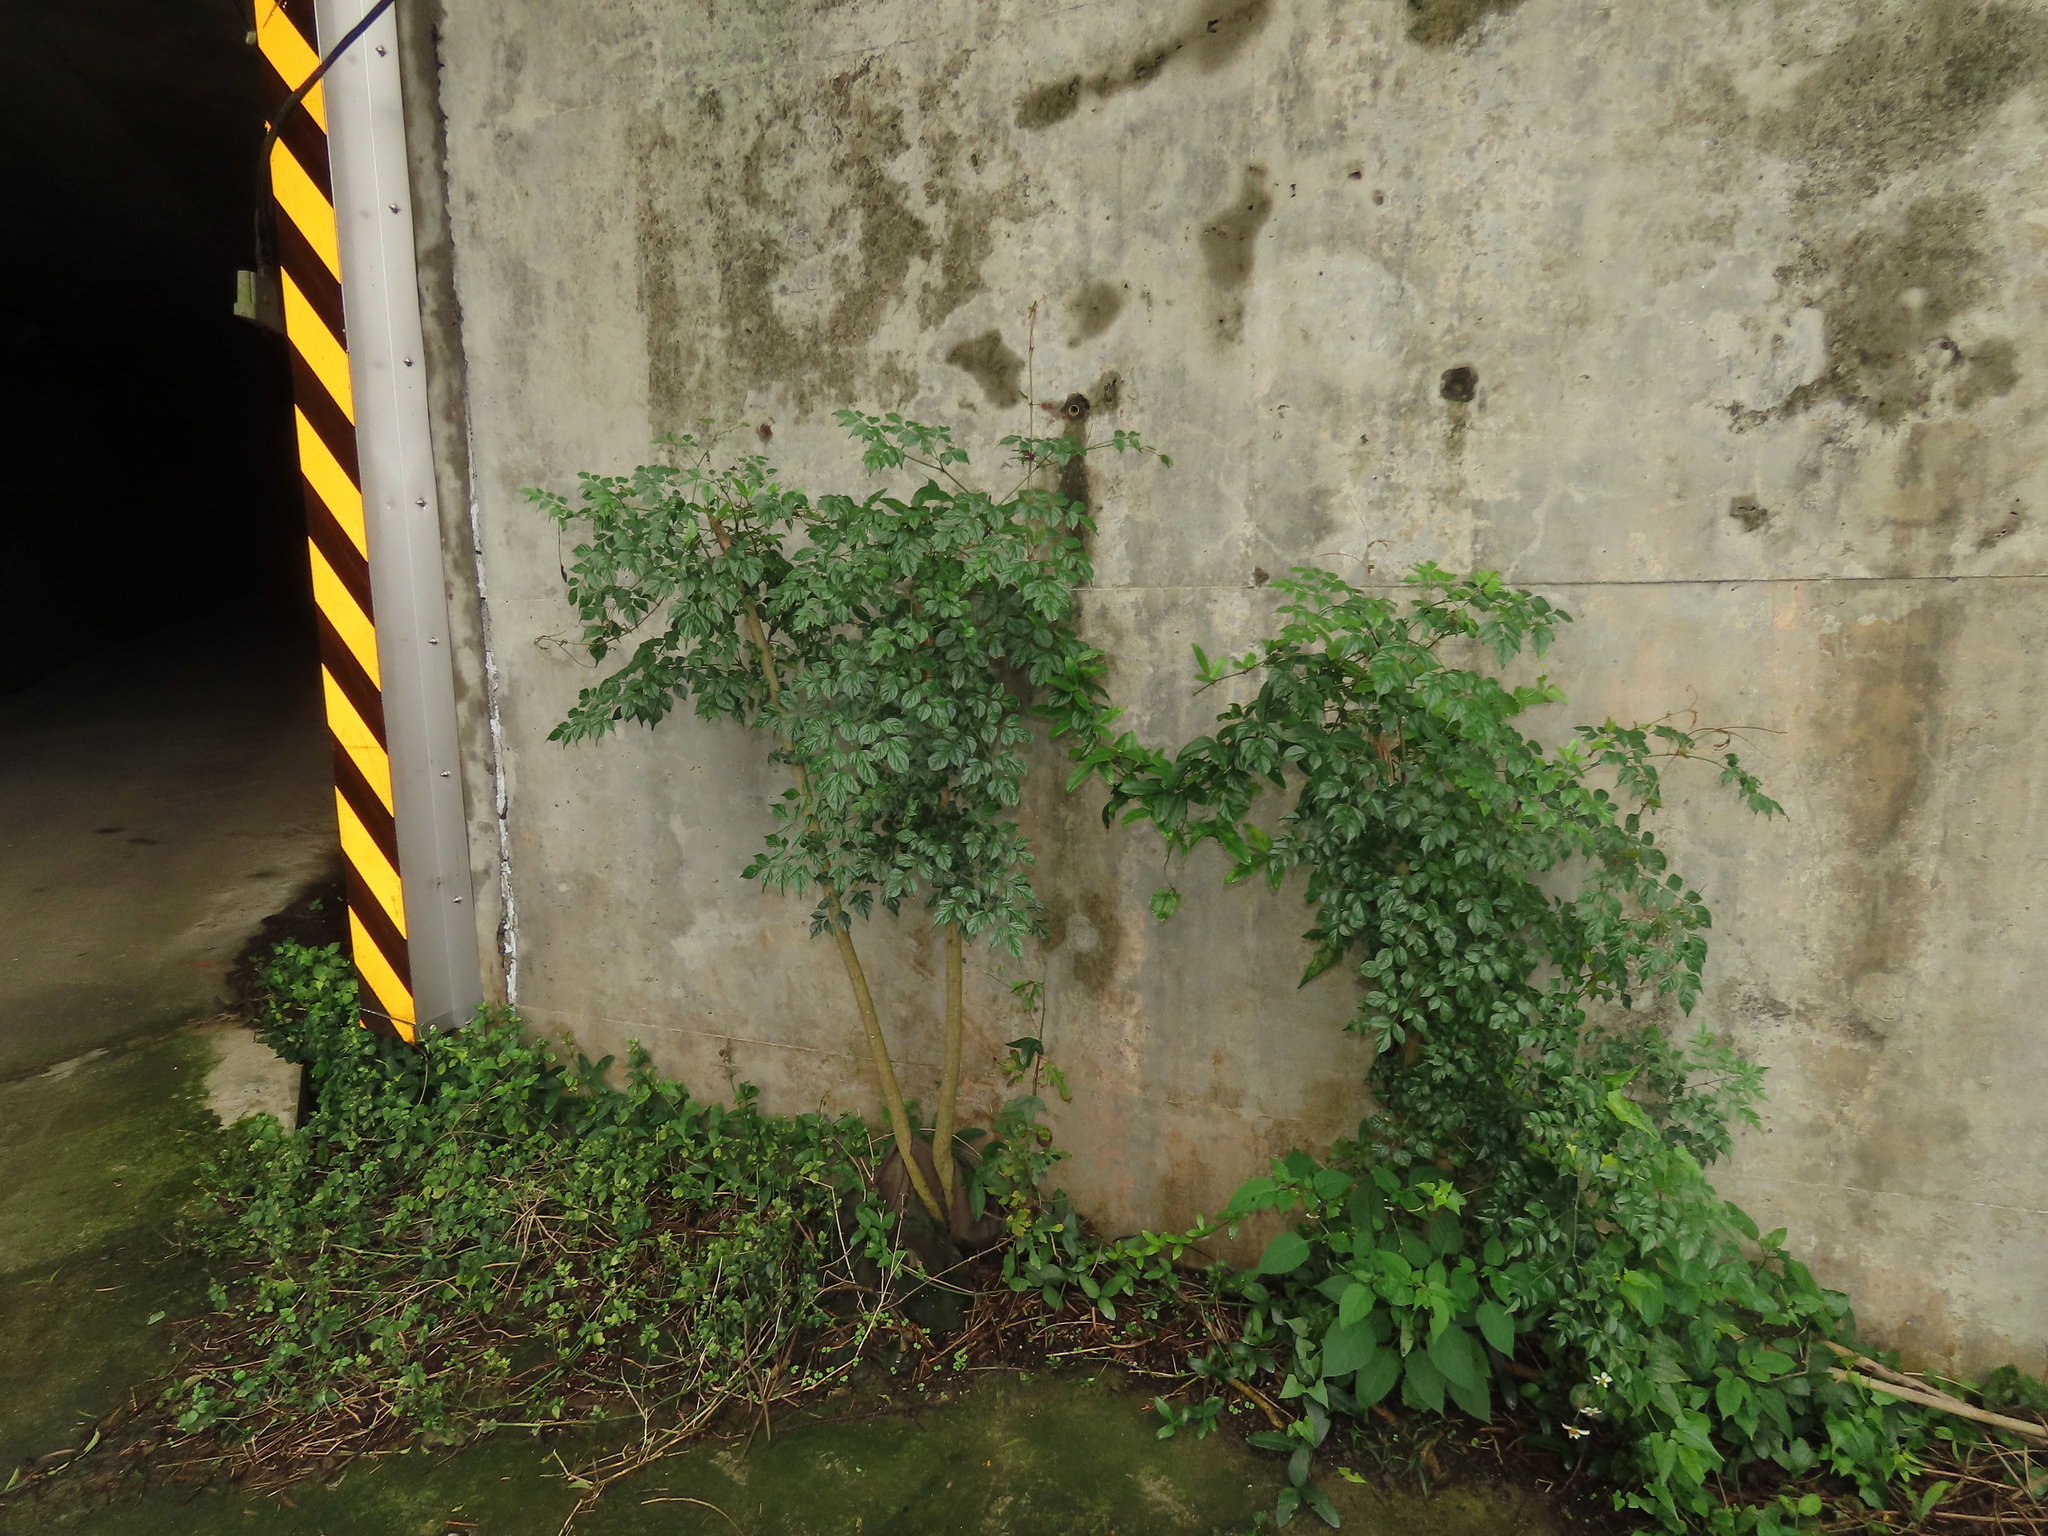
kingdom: Plantae
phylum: Tracheophyta
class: Magnoliopsida
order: Lamiales
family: Bignoniaceae
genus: Radermachera
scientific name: Radermachera sinica
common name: China doll plant
